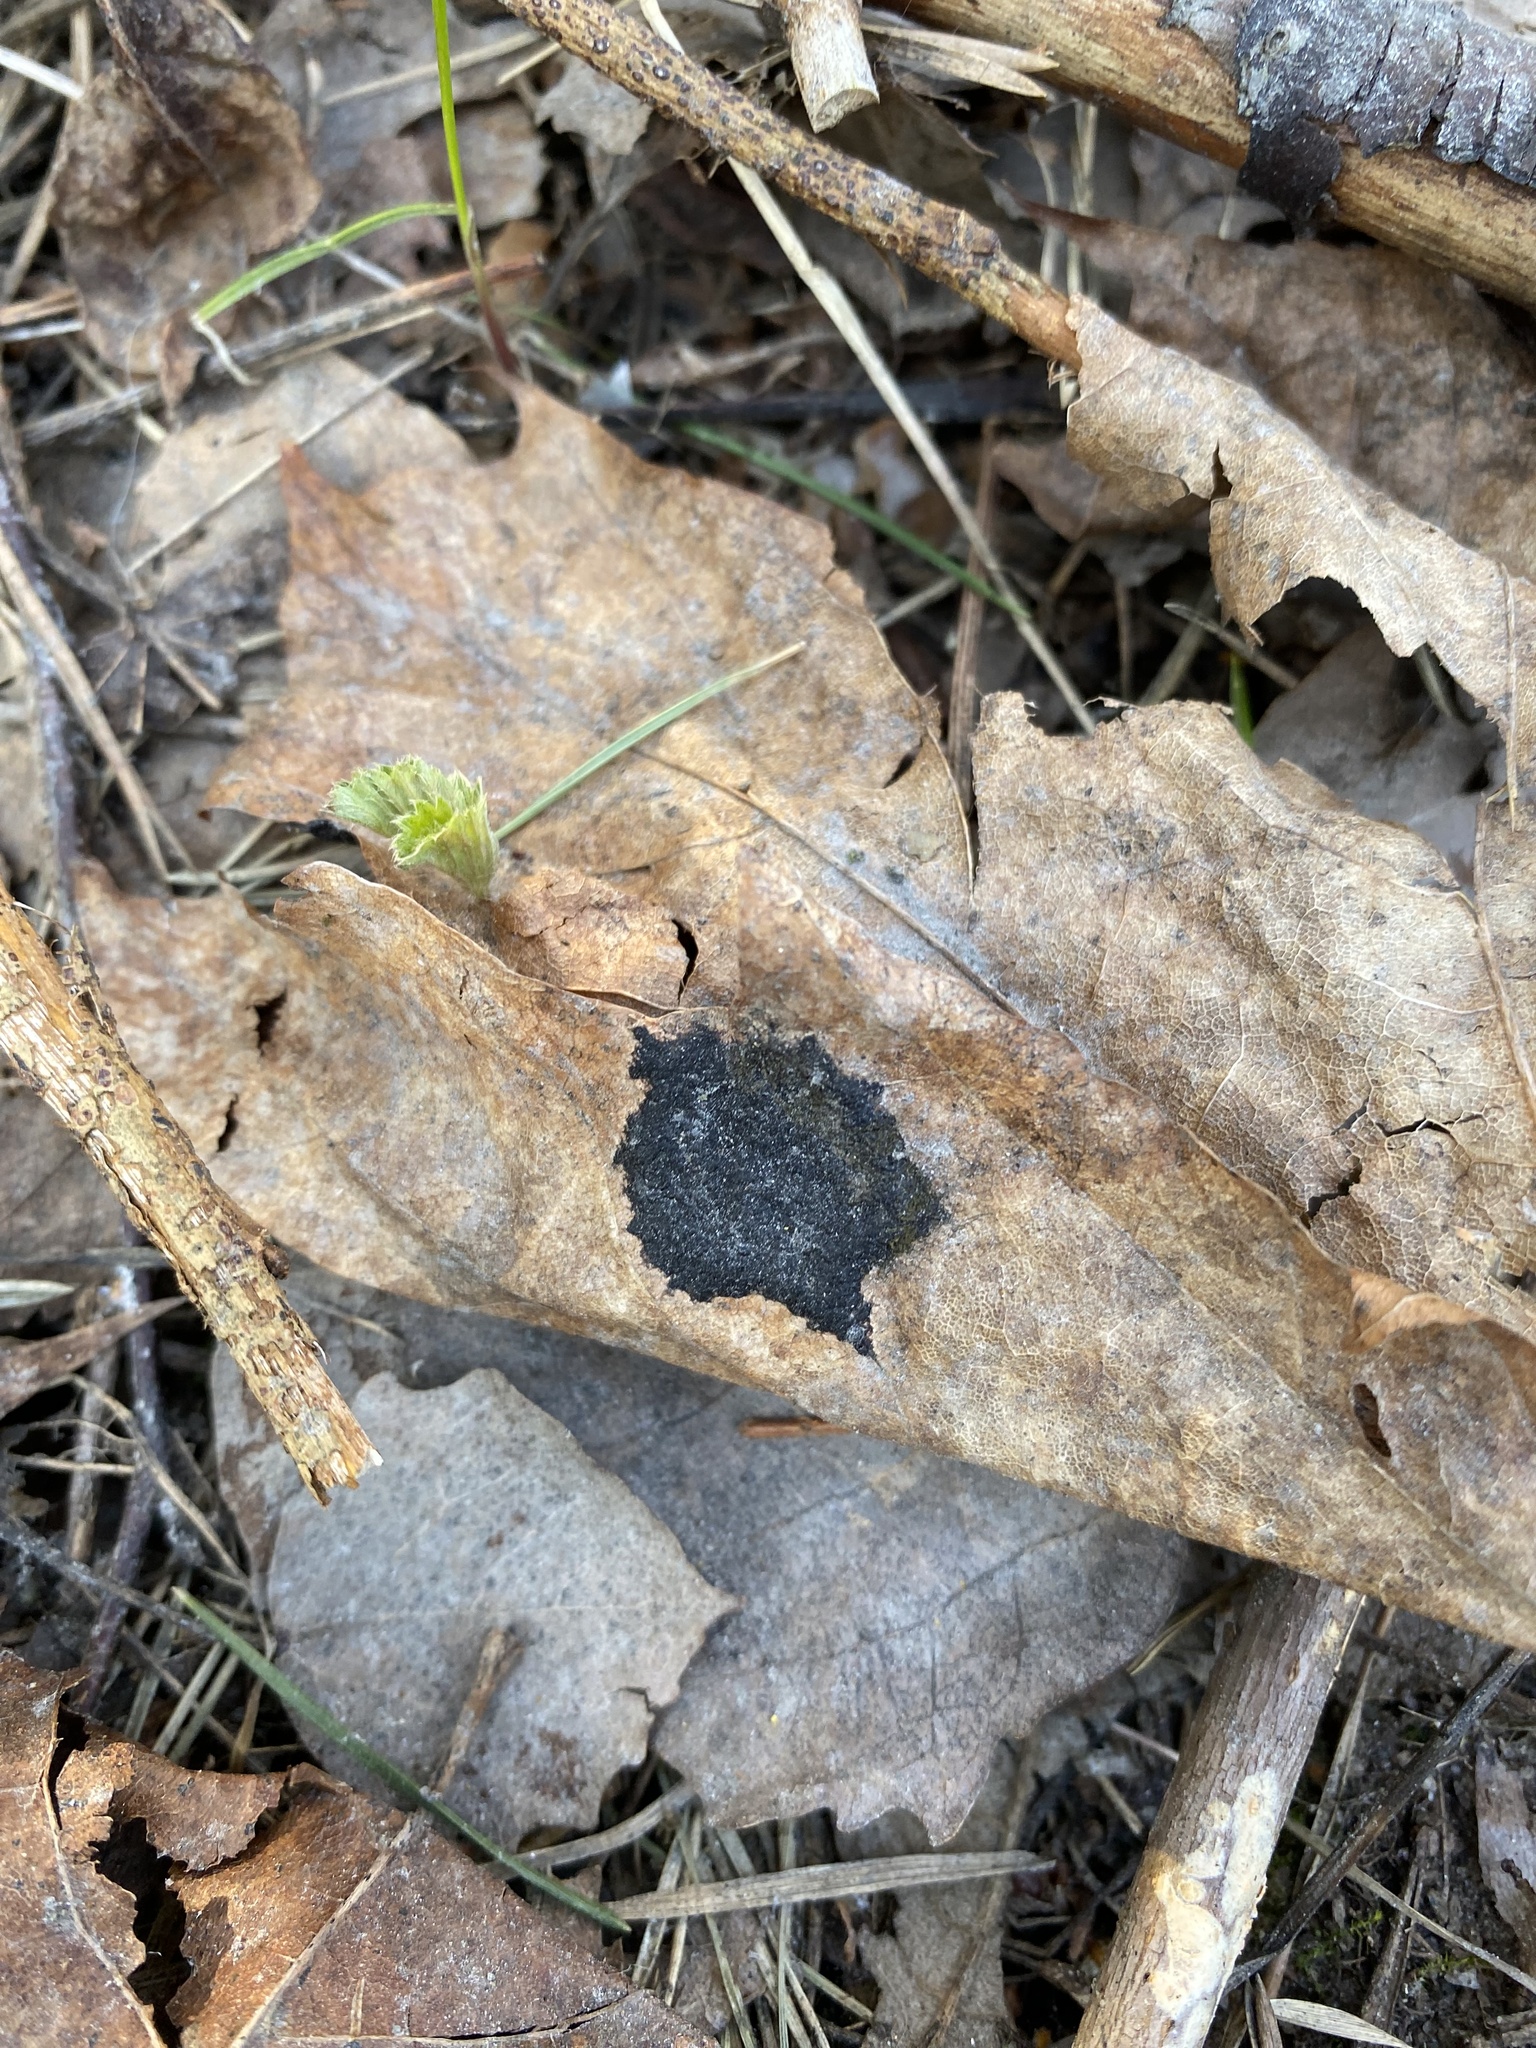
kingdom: Fungi
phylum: Ascomycota
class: Leotiomycetes
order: Rhytismatales
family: Rhytismataceae
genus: Rhytisma
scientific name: Rhytisma acerinum
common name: European tar spot
